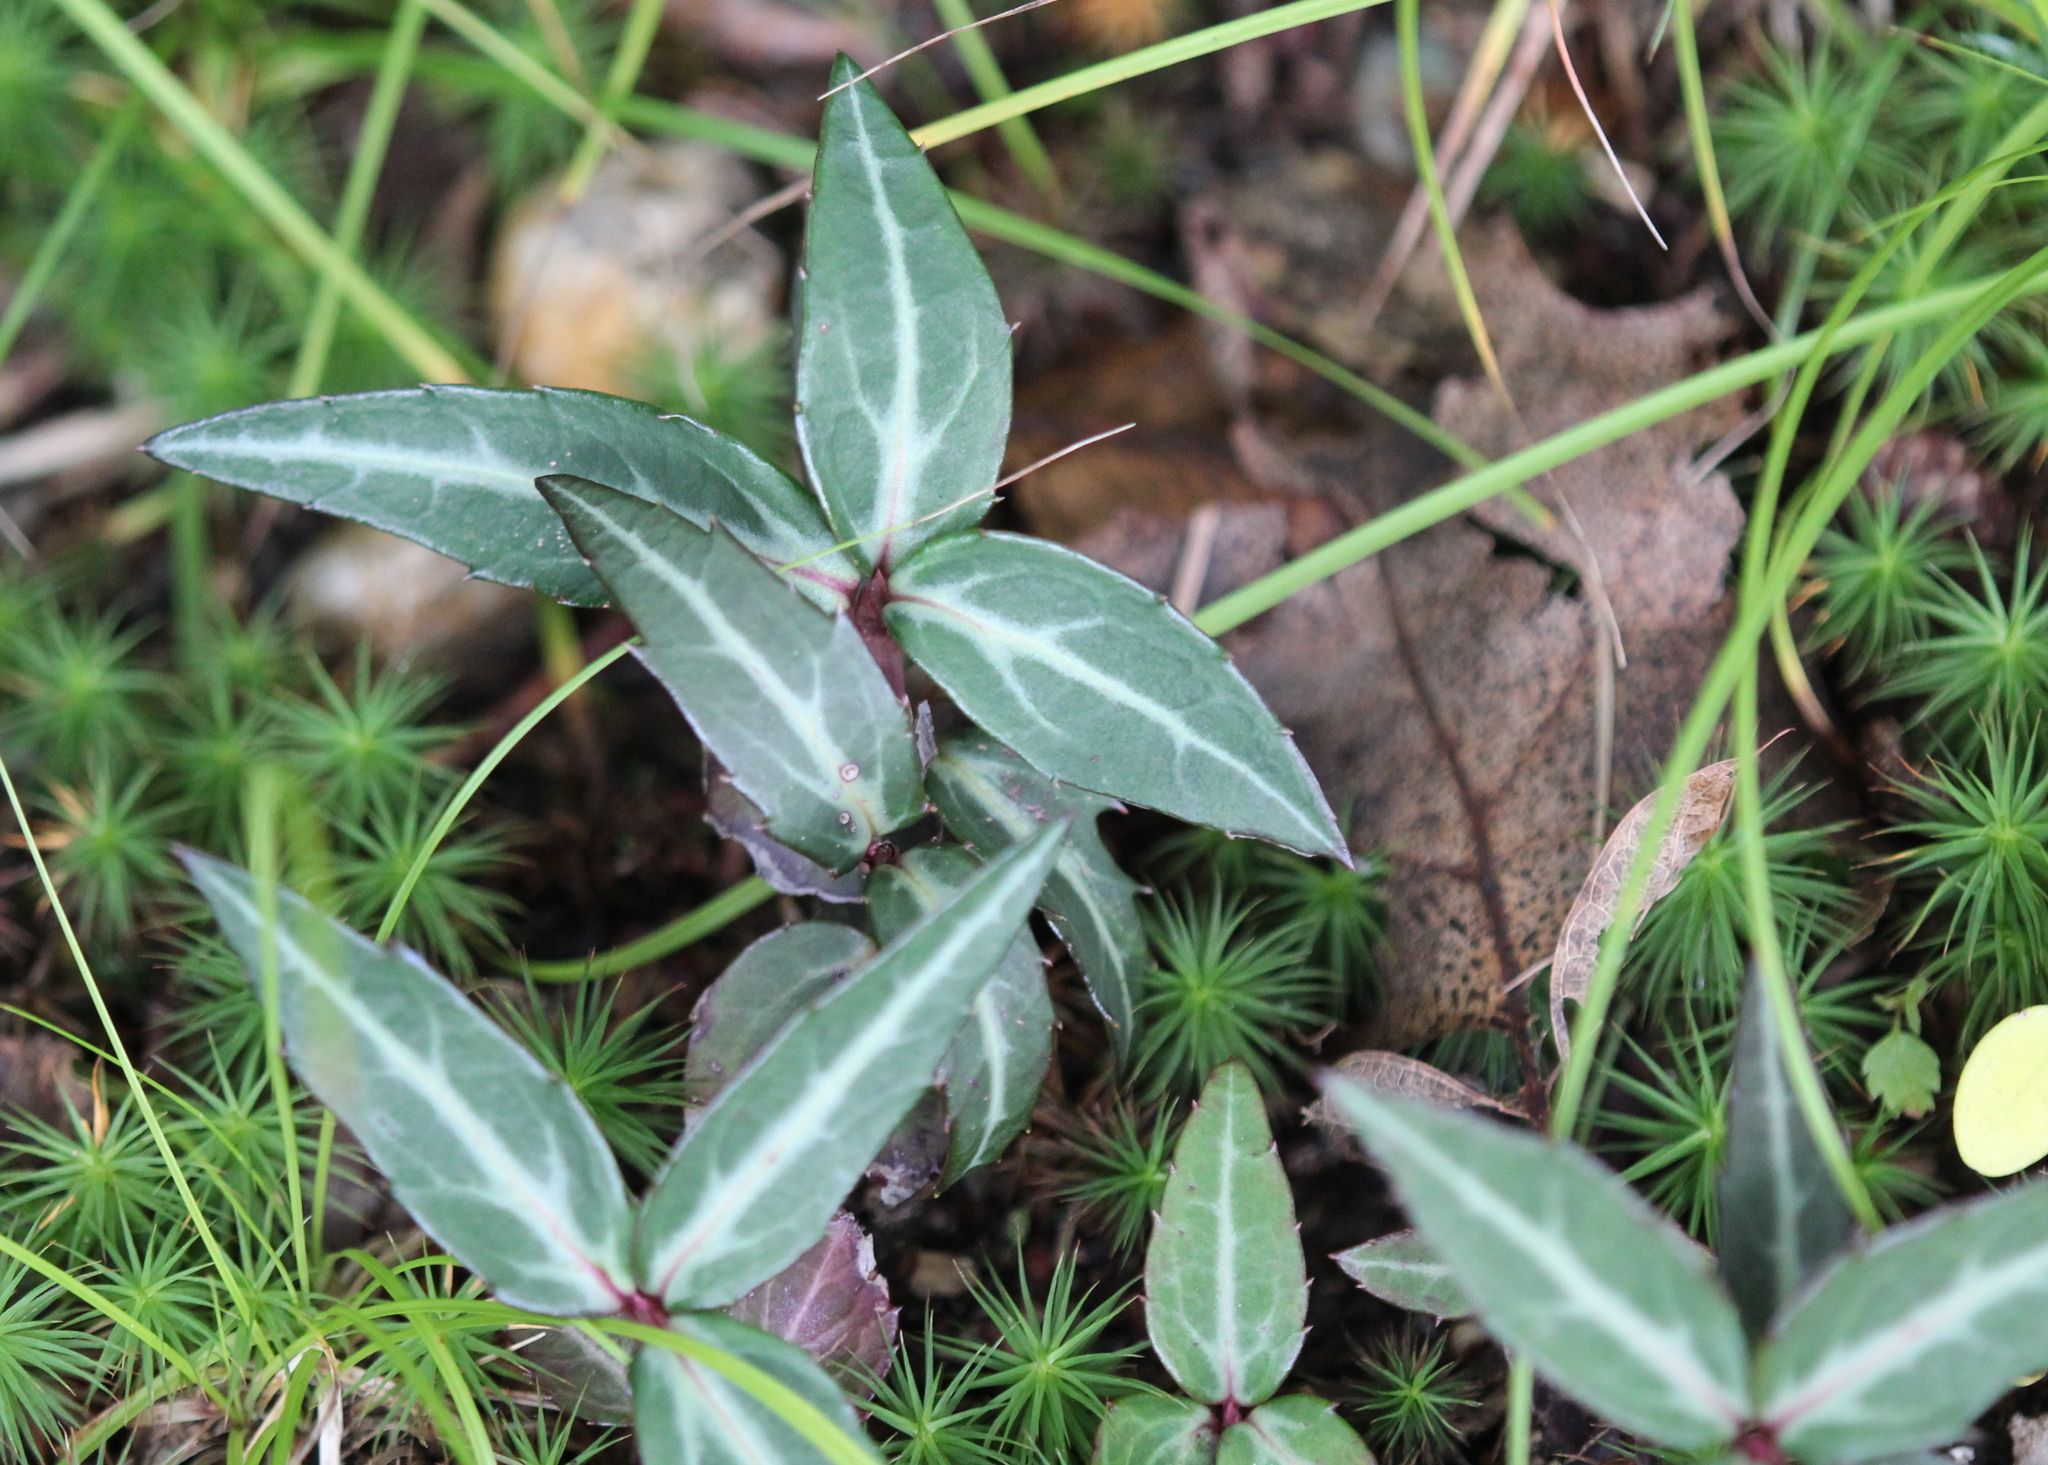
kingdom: Plantae
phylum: Tracheophyta
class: Magnoliopsida
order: Ericales
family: Ericaceae
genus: Chimaphila
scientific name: Chimaphila maculata
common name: Spotted pipsissewa
